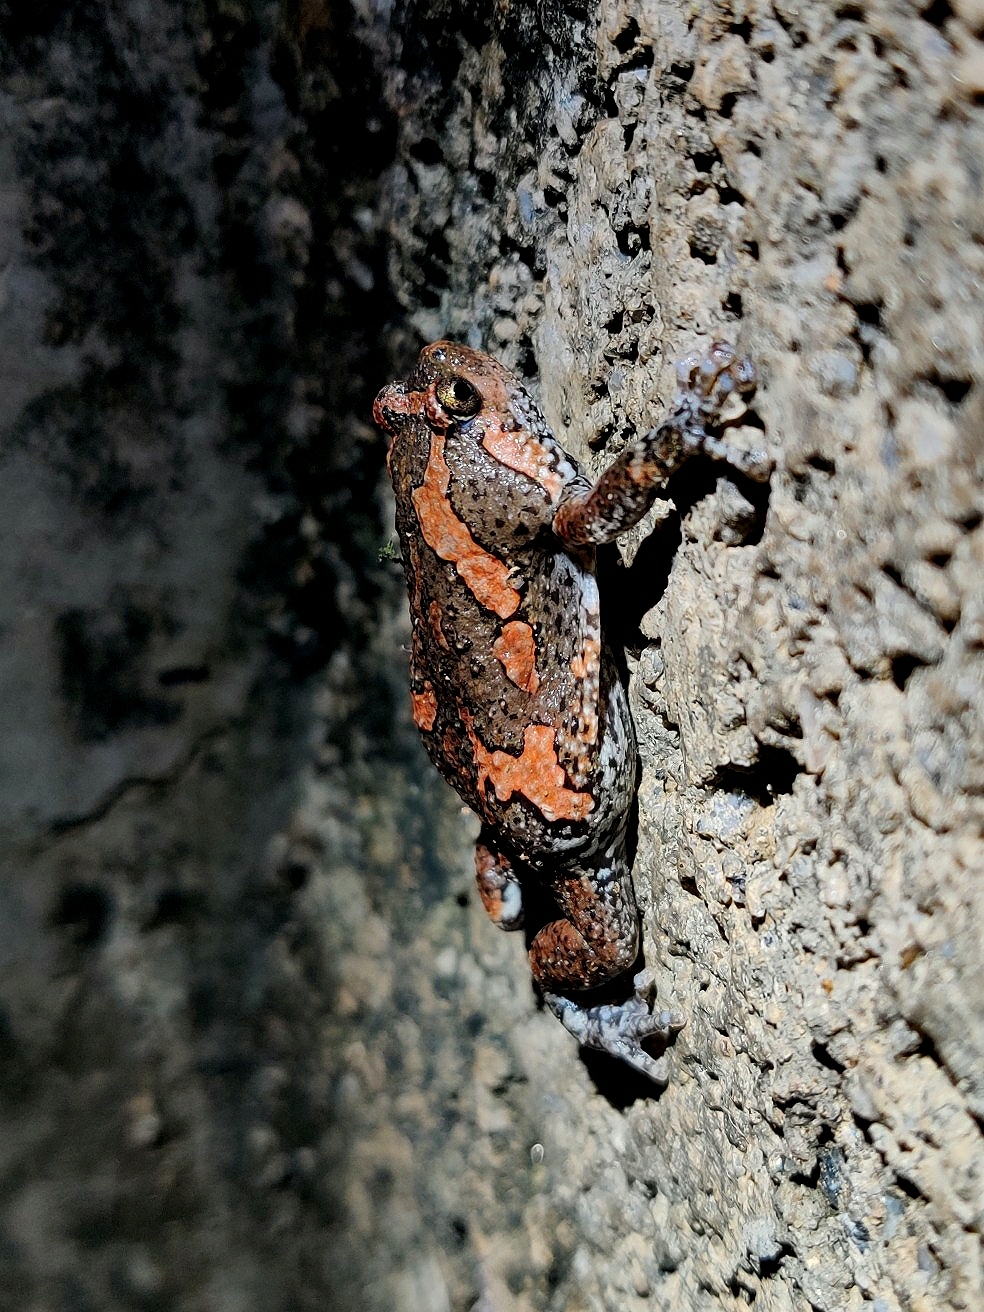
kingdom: Animalia
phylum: Chordata
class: Amphibia
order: Anura
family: Microhylidae
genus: Uperodon
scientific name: Uperodon taprobanicus
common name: Ceylon kaloula
